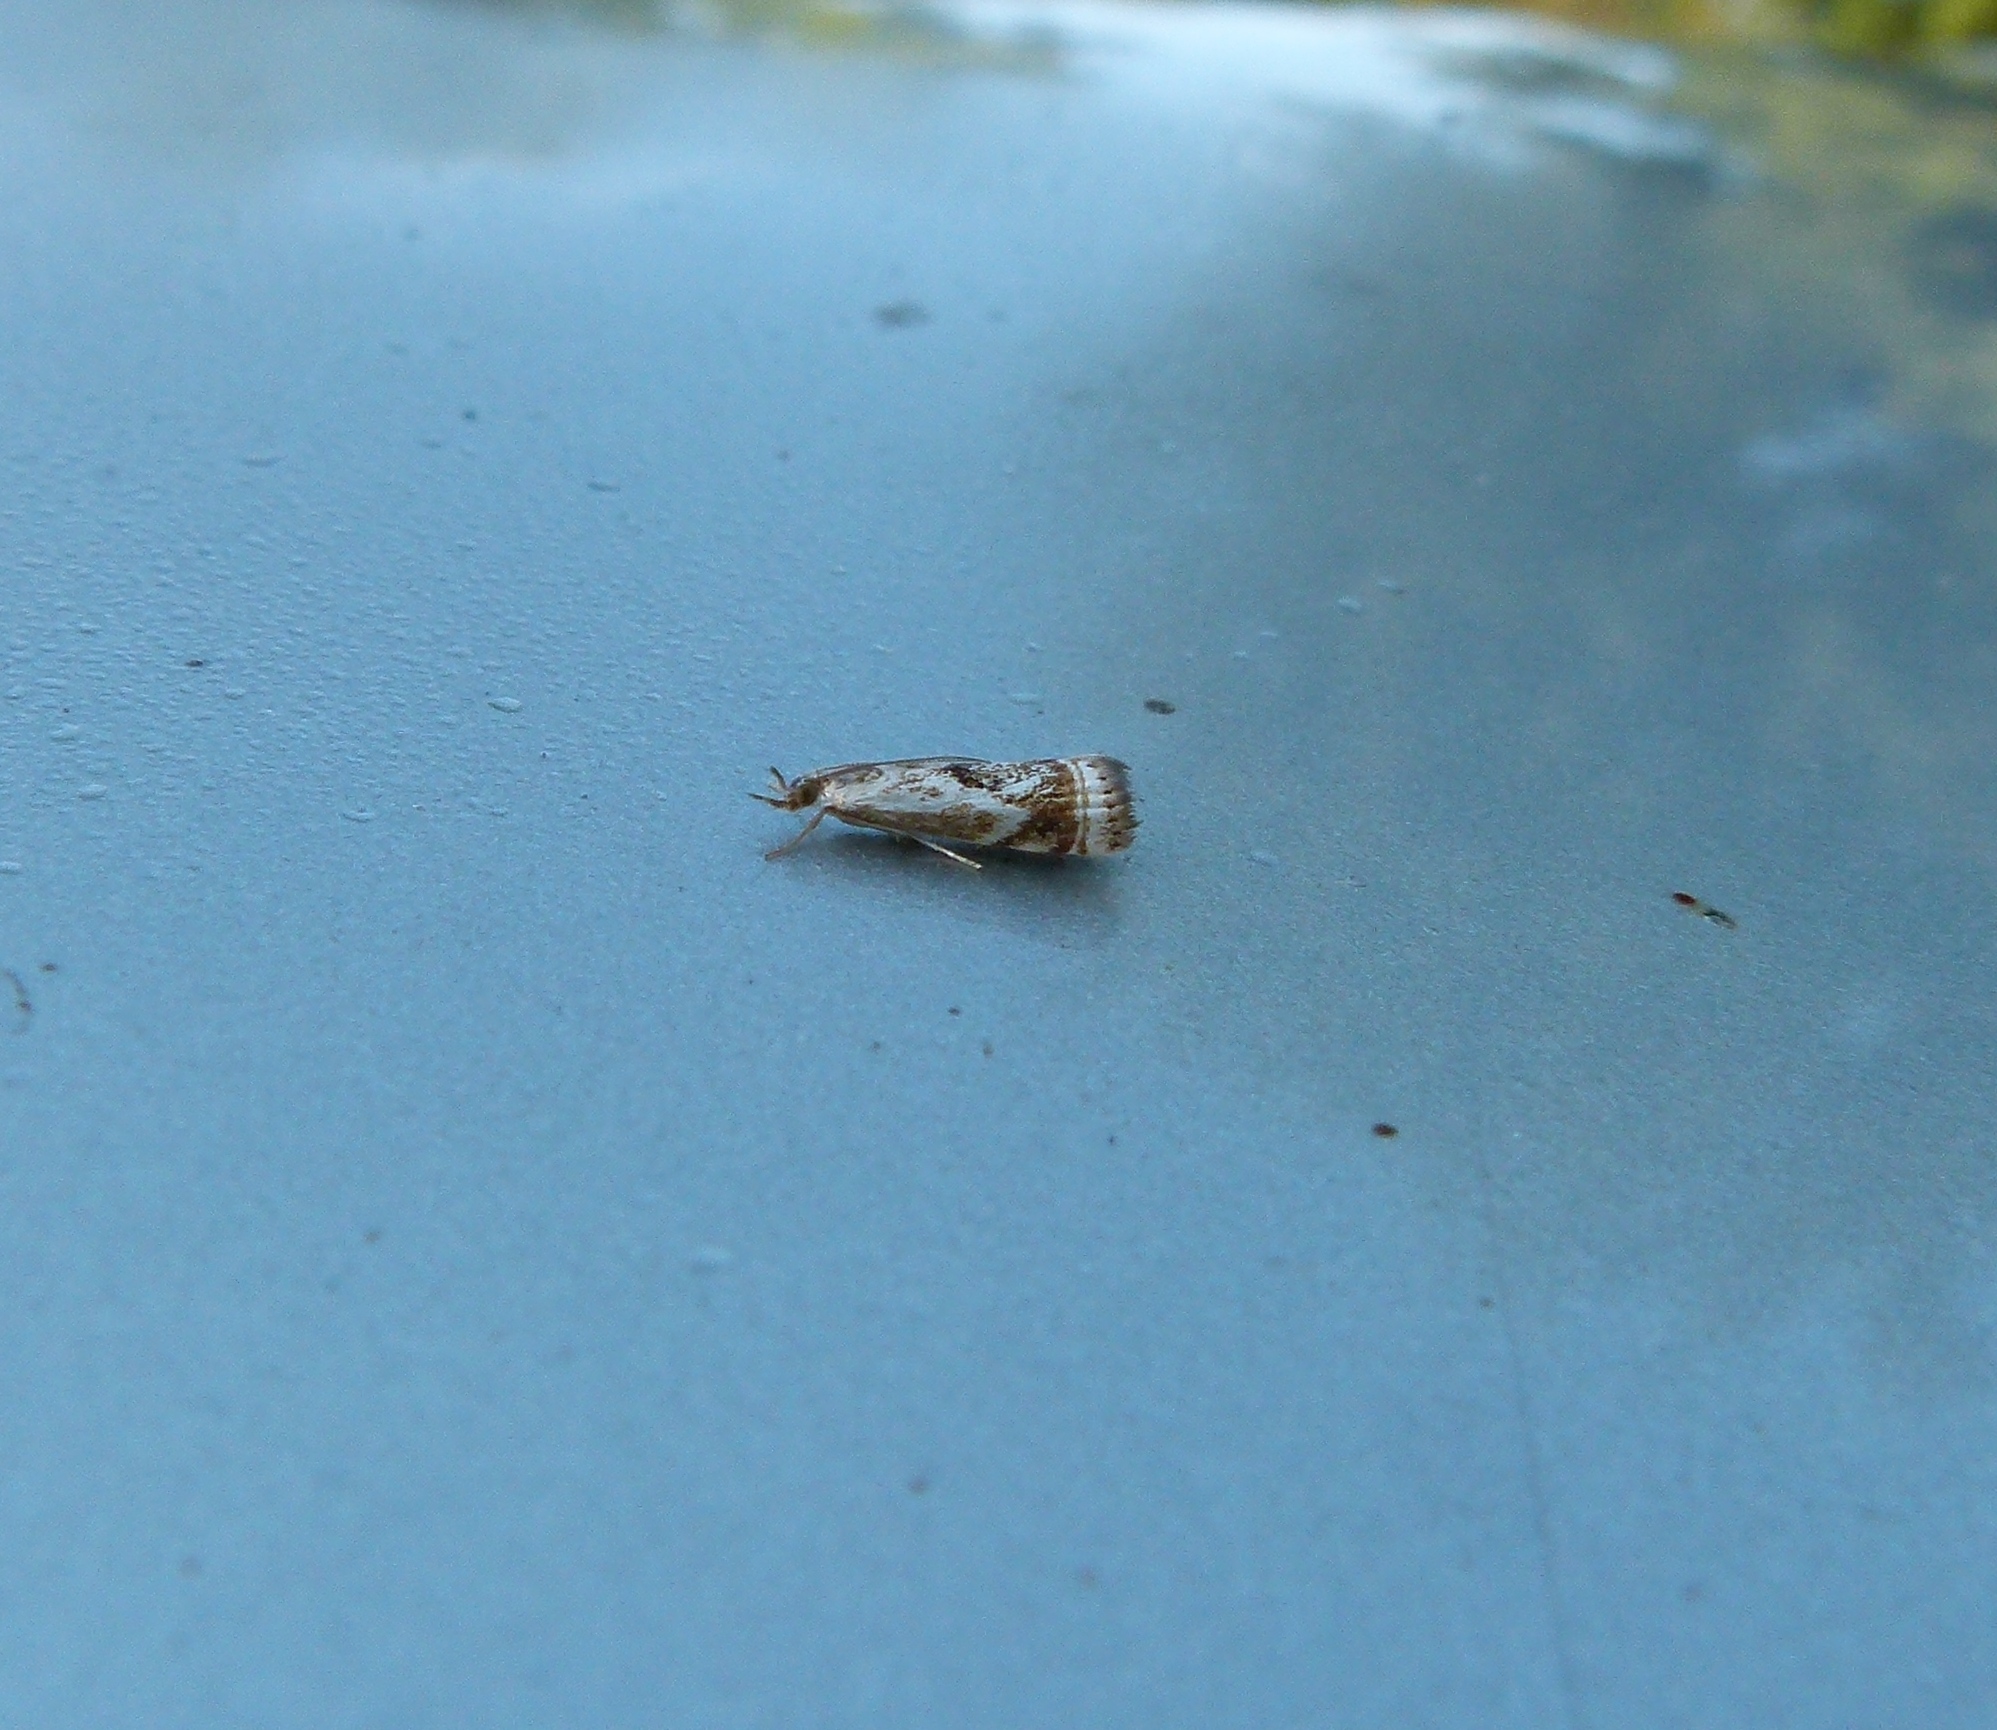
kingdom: Animalia
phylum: Arthropoda
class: Insecta
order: Lepidoptera
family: Crambidae
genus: Microcrambus
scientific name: Microcrambus elegans
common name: Elegant grass-veneer
